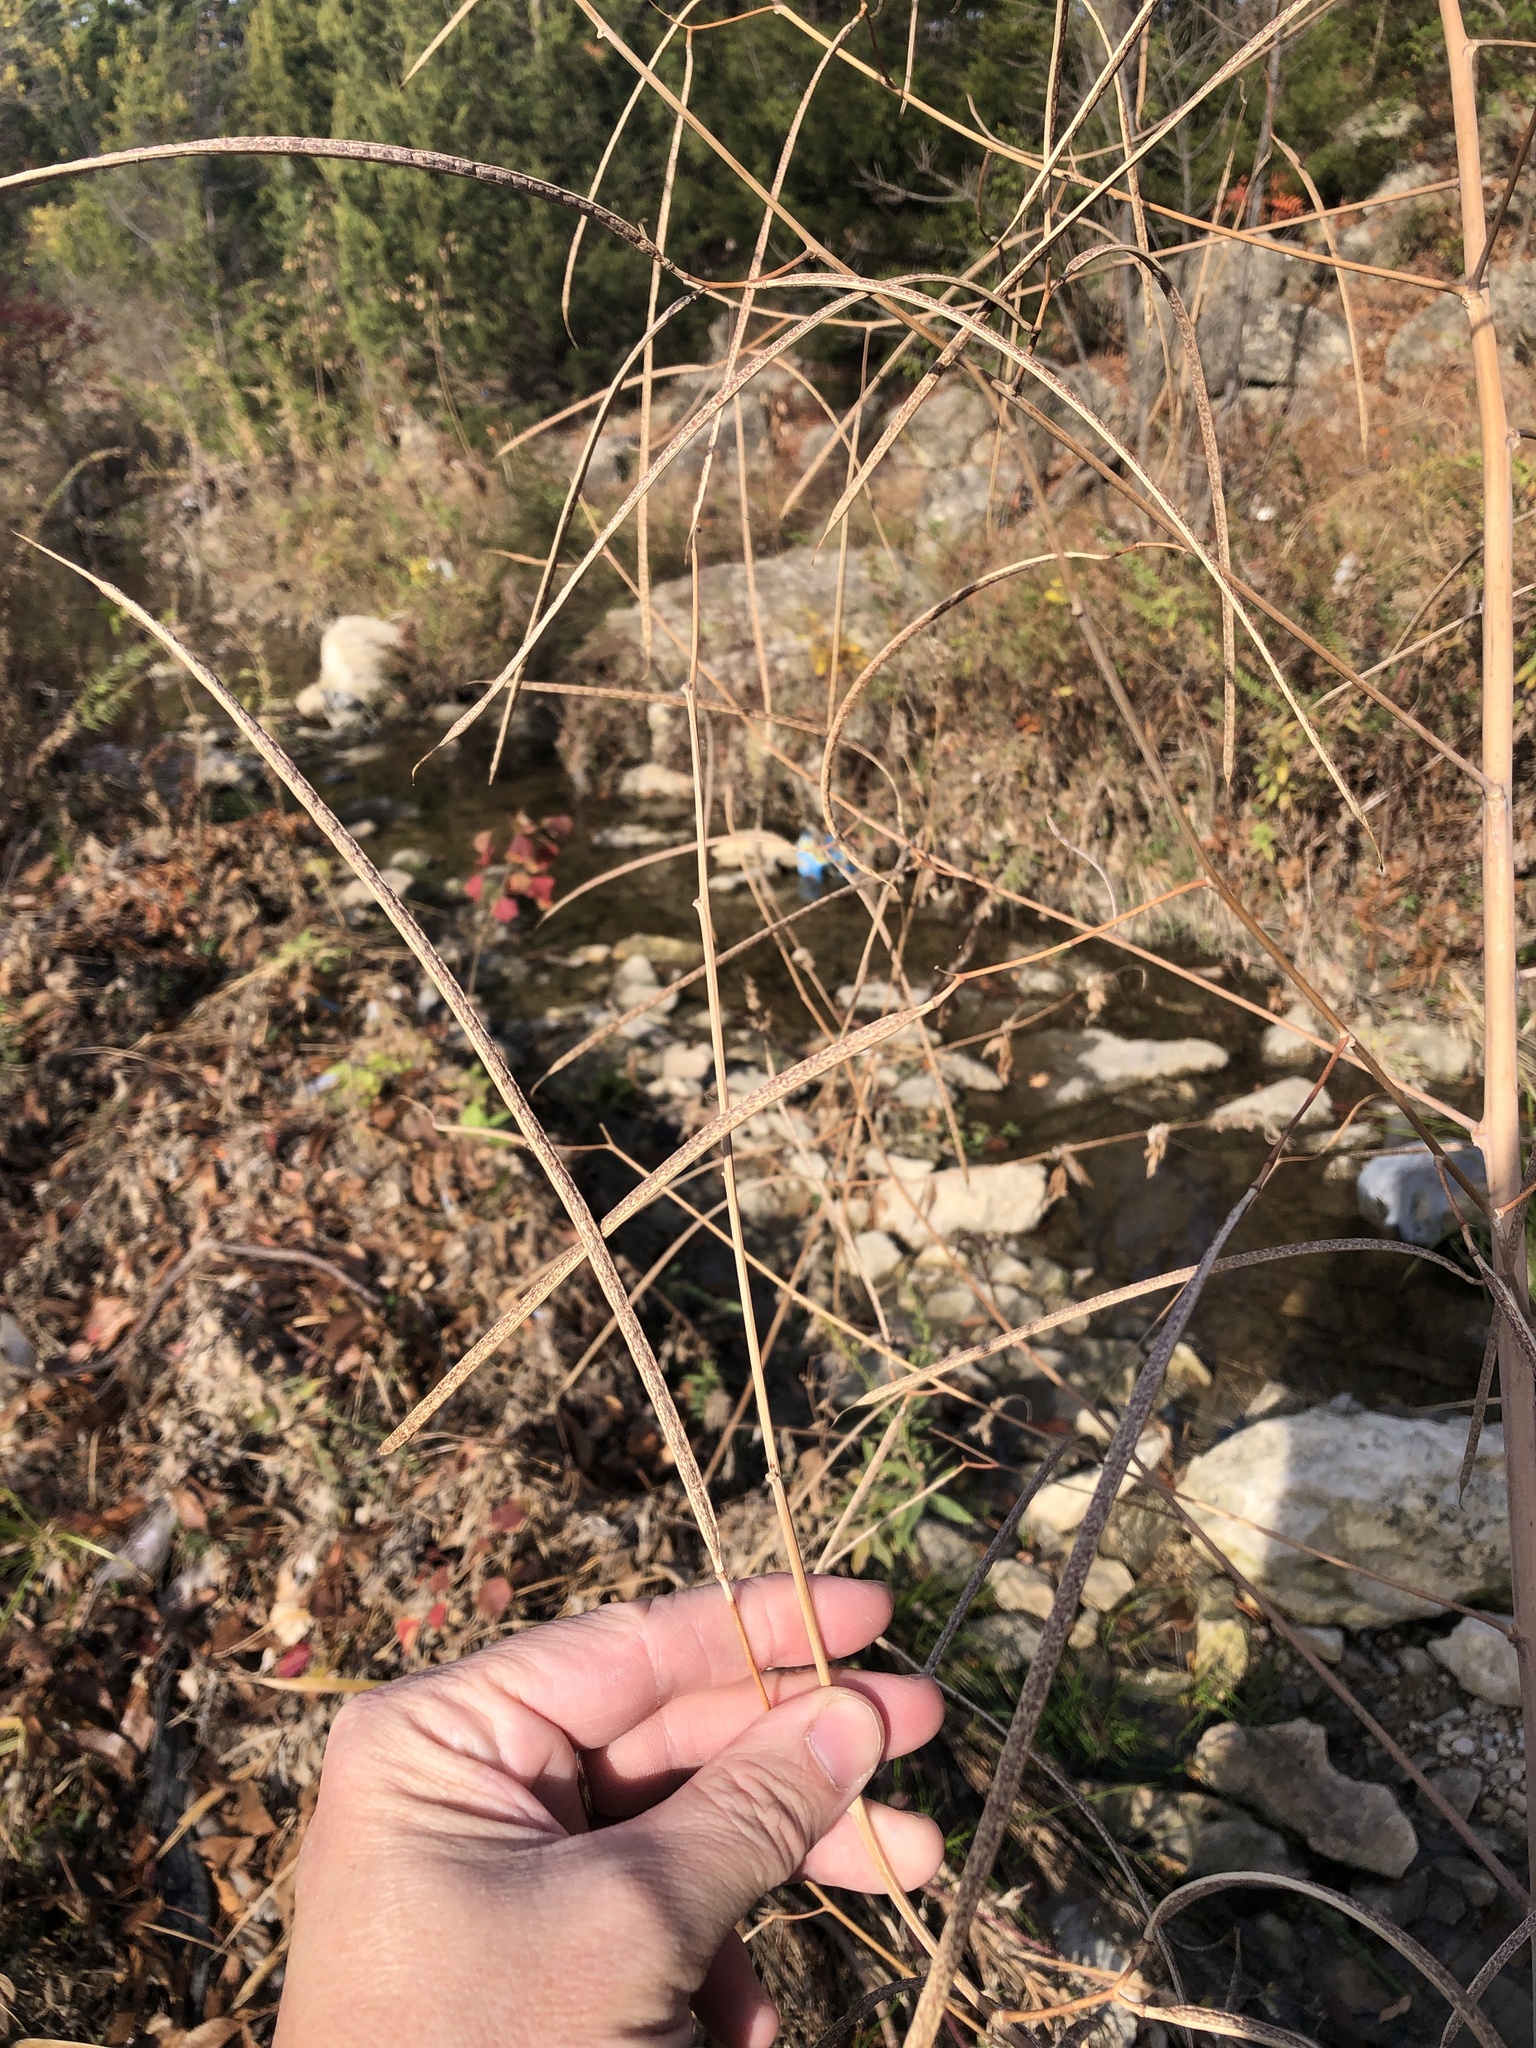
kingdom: Plantae
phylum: Tracheophyta
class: Magnoliopsida
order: Fabales
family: Fabaceae
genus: Sesbania
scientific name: Sesbania herbacea
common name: Bigpod sesbania
